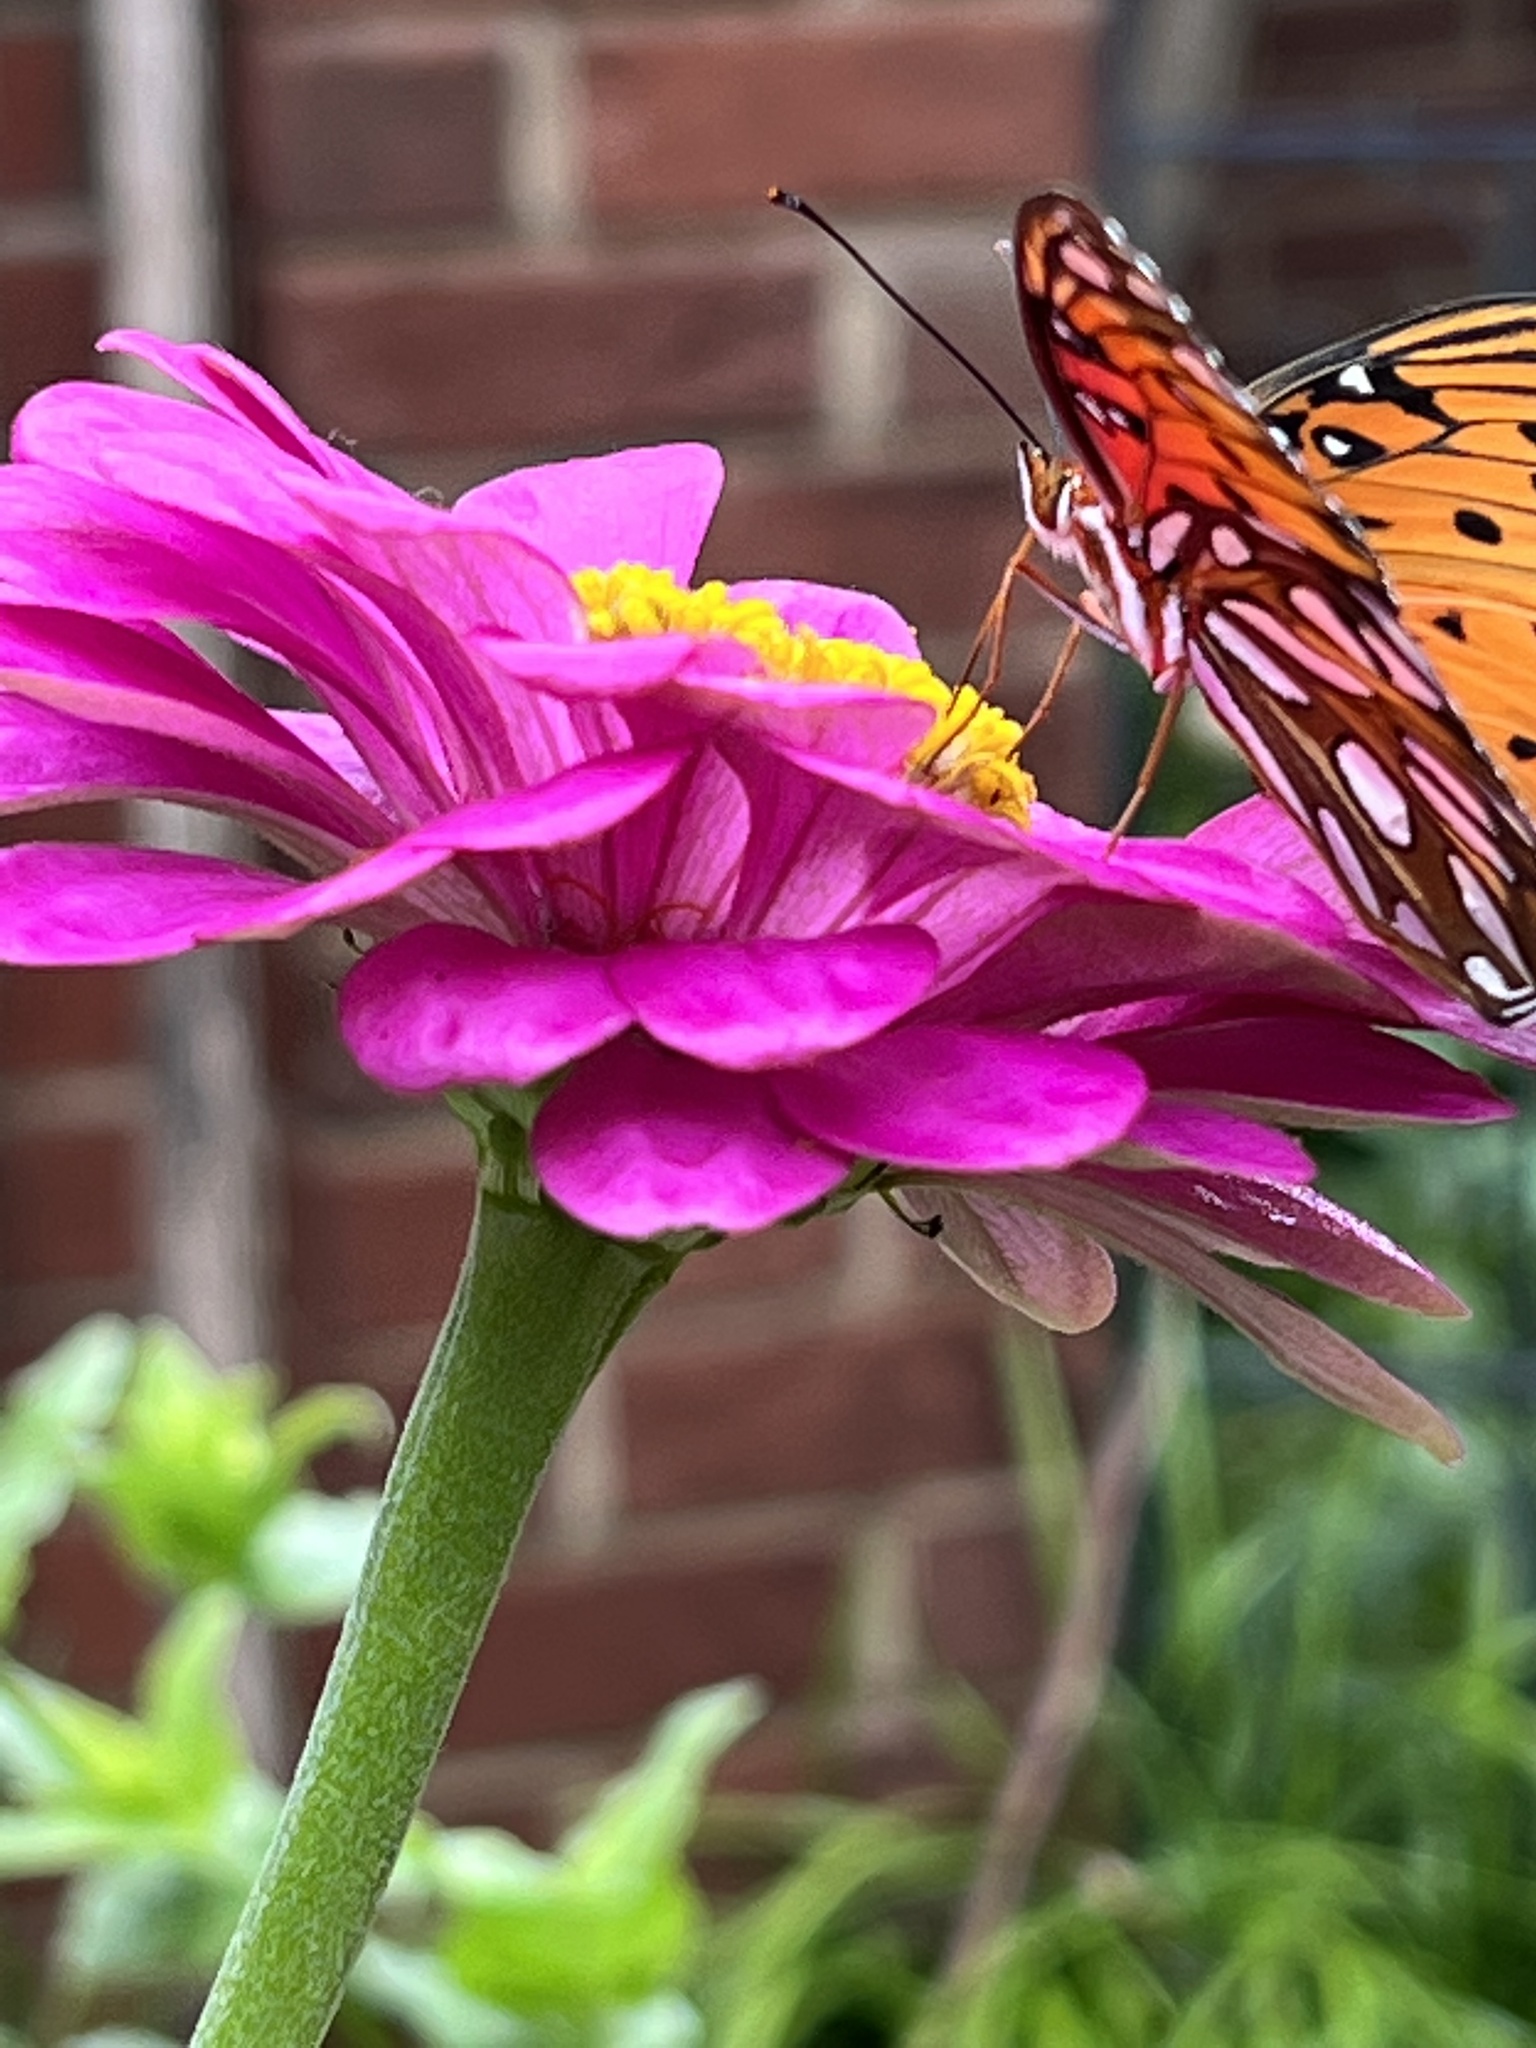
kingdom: Animalia
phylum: Arthropoda
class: Insecta
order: Lepidoptera
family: Nymphalidae
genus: Dione
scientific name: Dione vanillae
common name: Gulf fritillary
